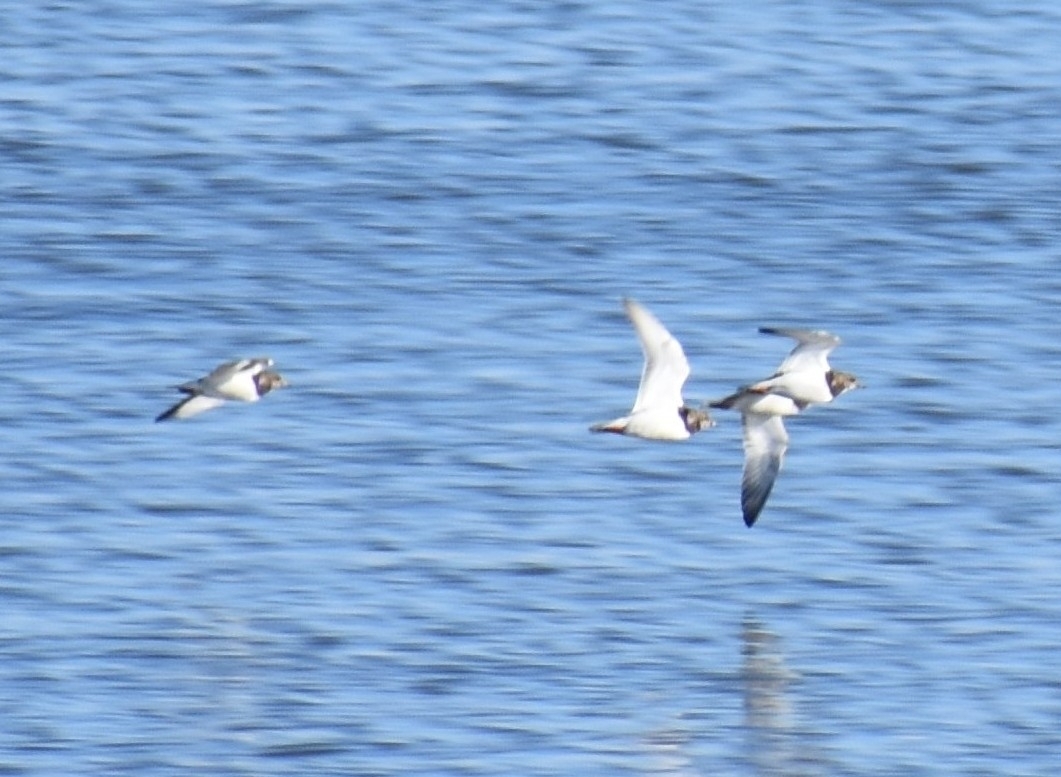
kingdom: Animalia
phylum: Chordata
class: Aves
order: Charadriiformes
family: Scolopacidae
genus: Arenaria
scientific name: Arenaria interpres
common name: Ruddy turnstone
